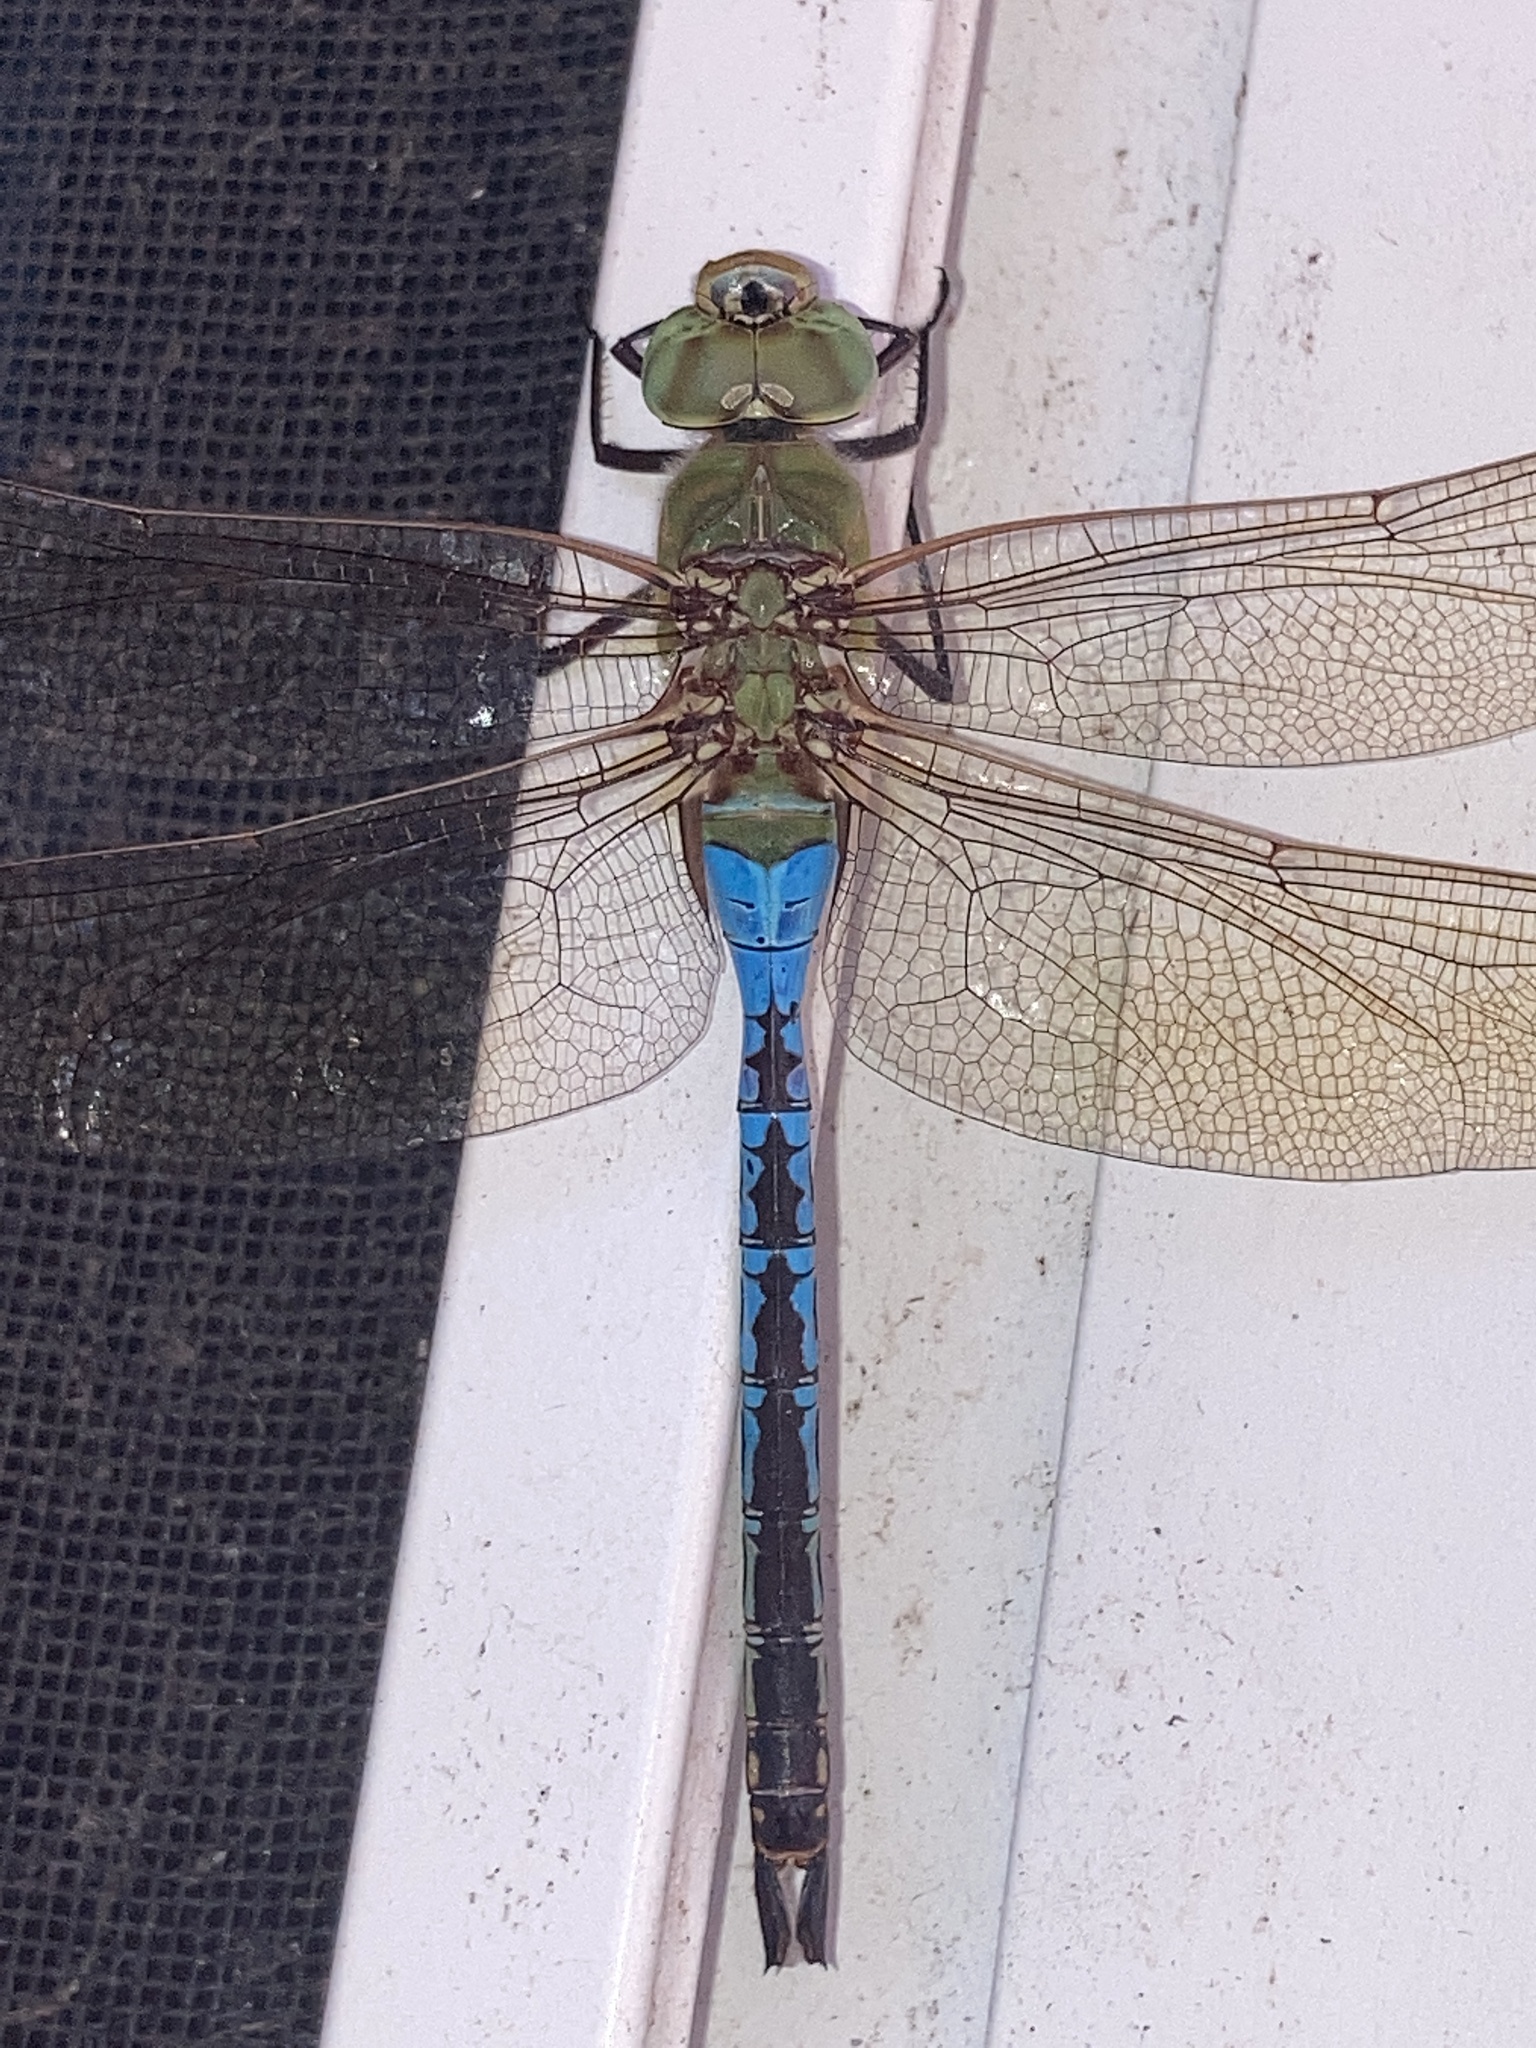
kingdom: Animalia
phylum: Arthropoda
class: Insecta
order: Odonata
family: Aeshnidae
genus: Anax
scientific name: Anax junius
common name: Common green darner
